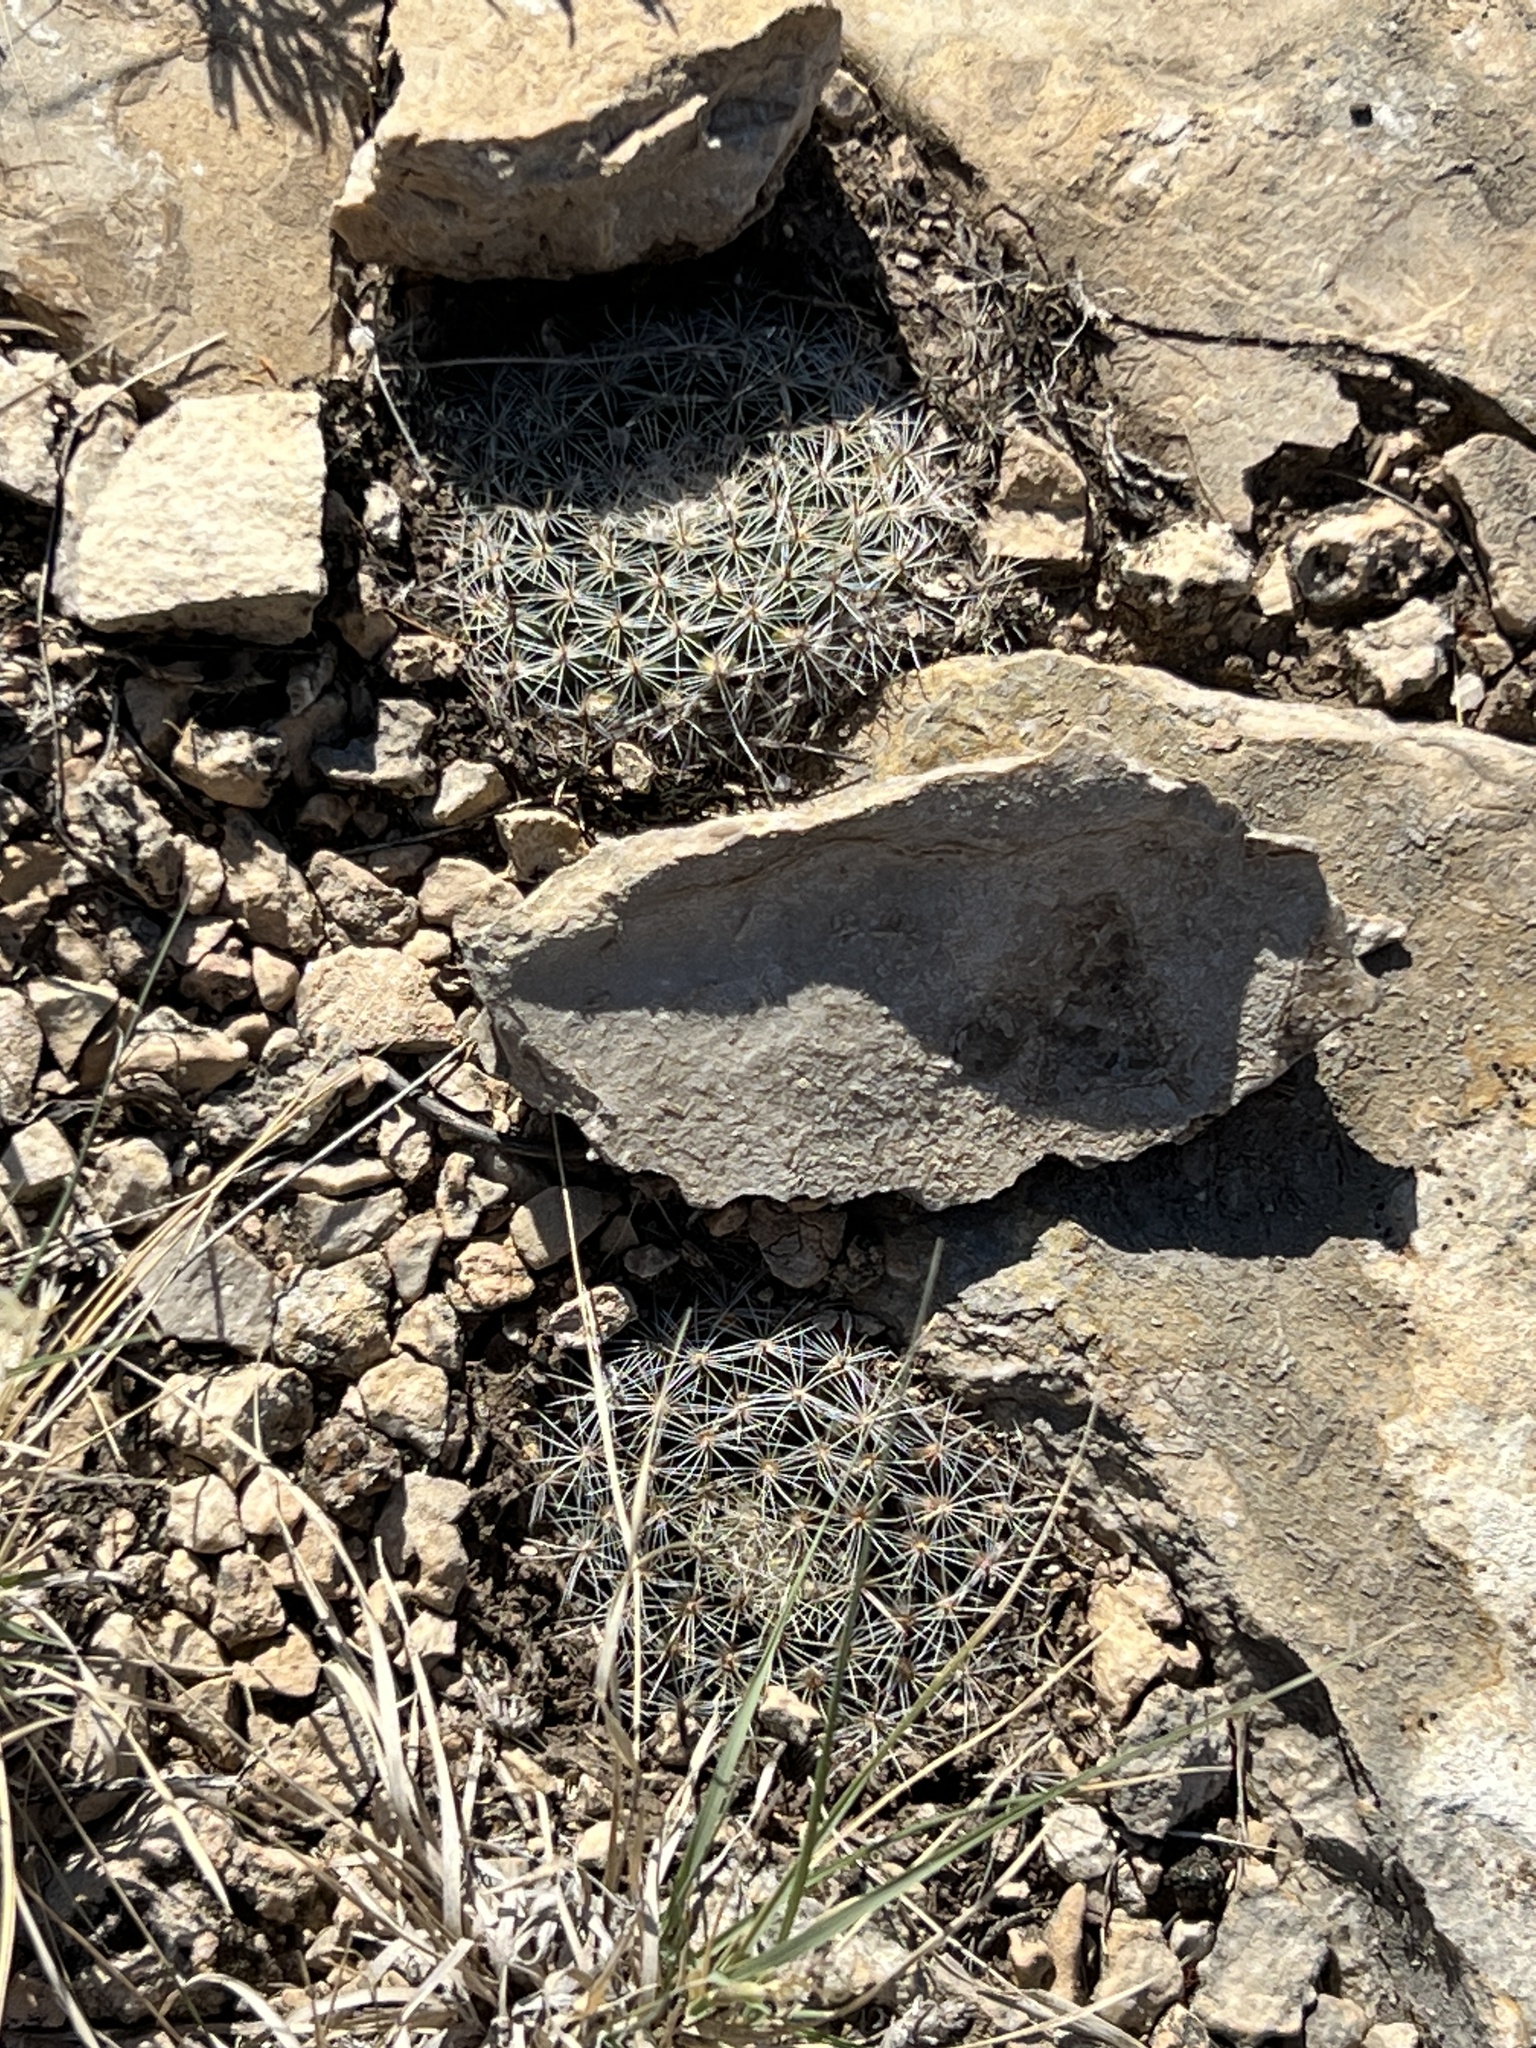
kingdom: Plantae
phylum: Tracheophyta
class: Magnoliopsida
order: Caryophyllales
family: Cactaceae
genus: Mammillaria
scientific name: Mammillaria heyderi
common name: Little nipple cactus
